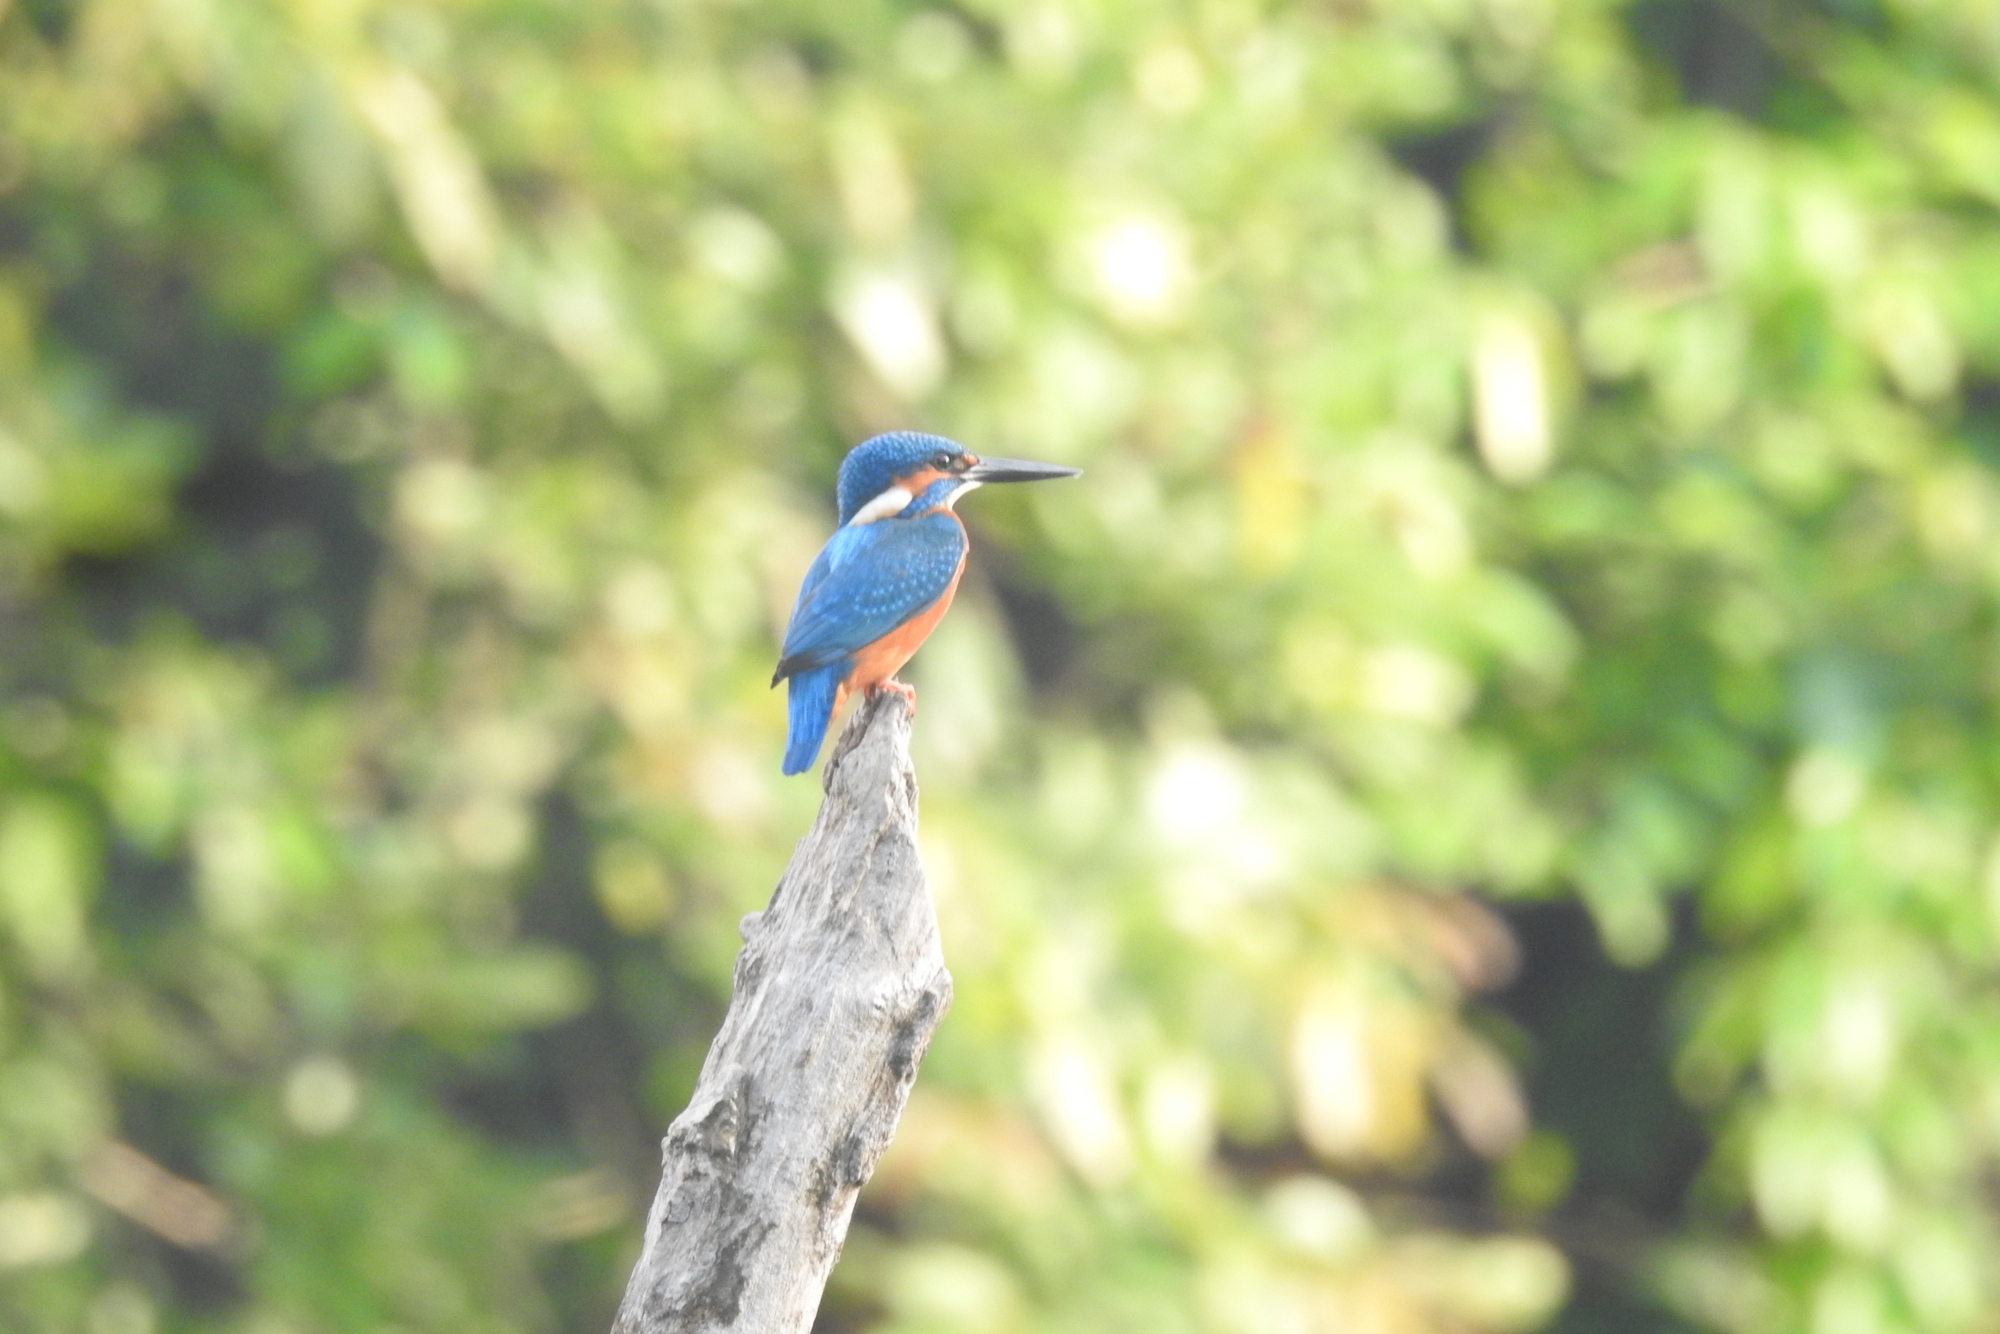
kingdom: Animalia
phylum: Chordata
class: Aves
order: Coraciiformes
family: Alcedinidae
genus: Alcedo
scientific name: Alcedo atthis
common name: Common kingfisher
